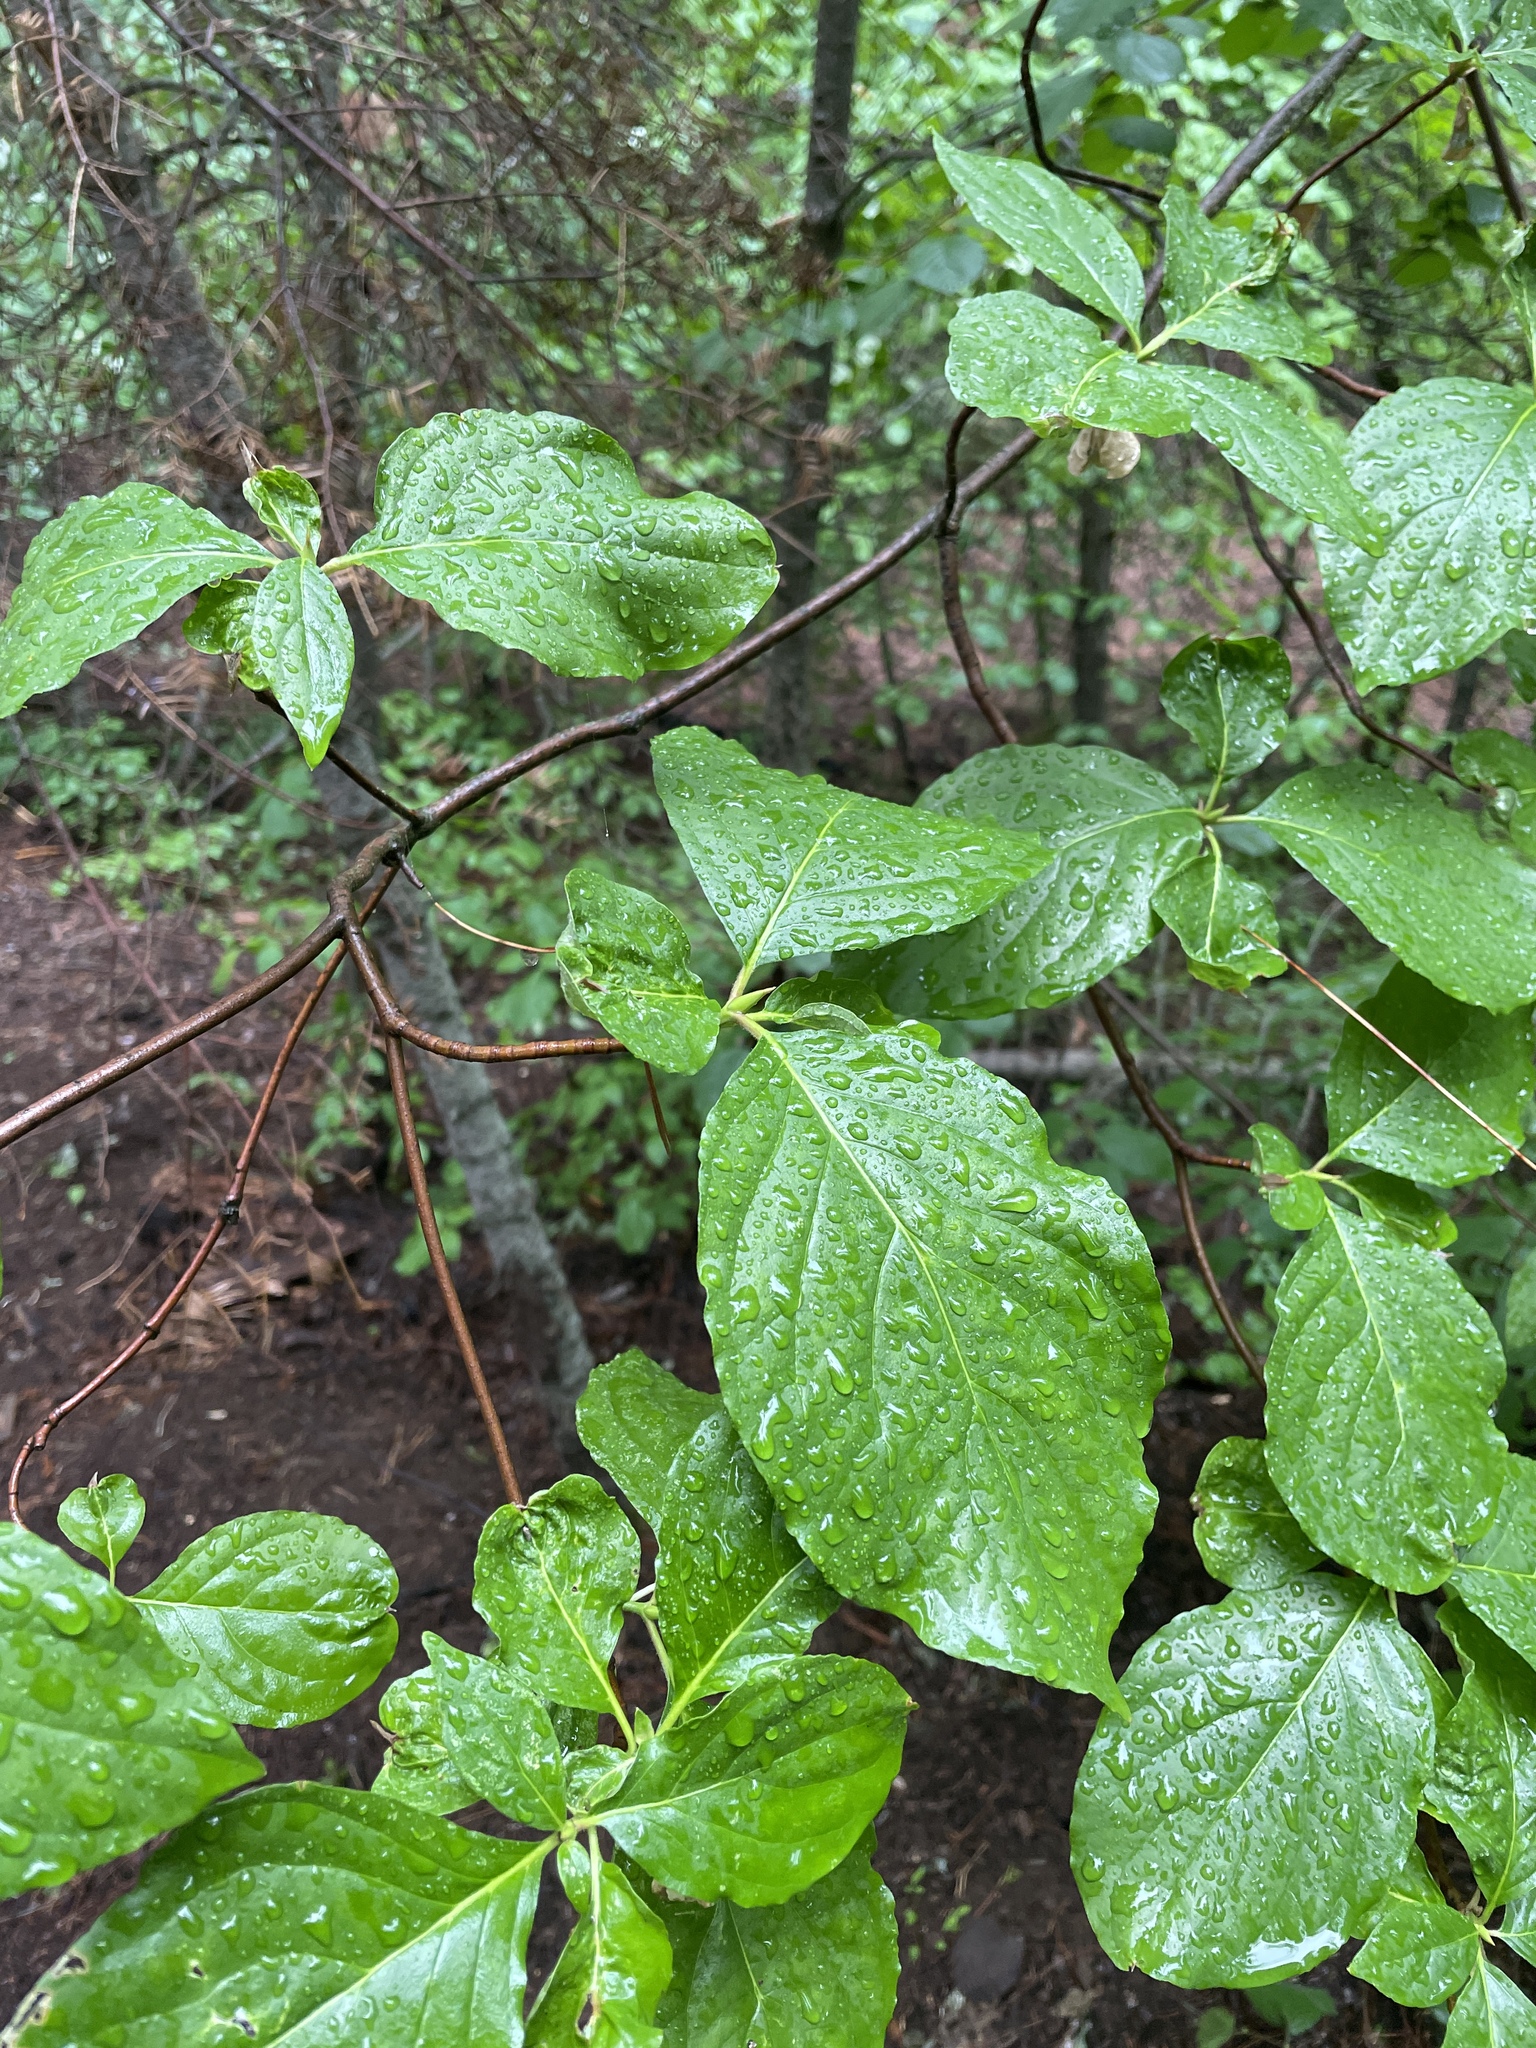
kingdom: Plantae
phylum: Tracheophyta
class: Magnoliopsida
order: Cornales
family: Cornaceae
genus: Cornus
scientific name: Cornus nuttallii
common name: Pacific dogwood
